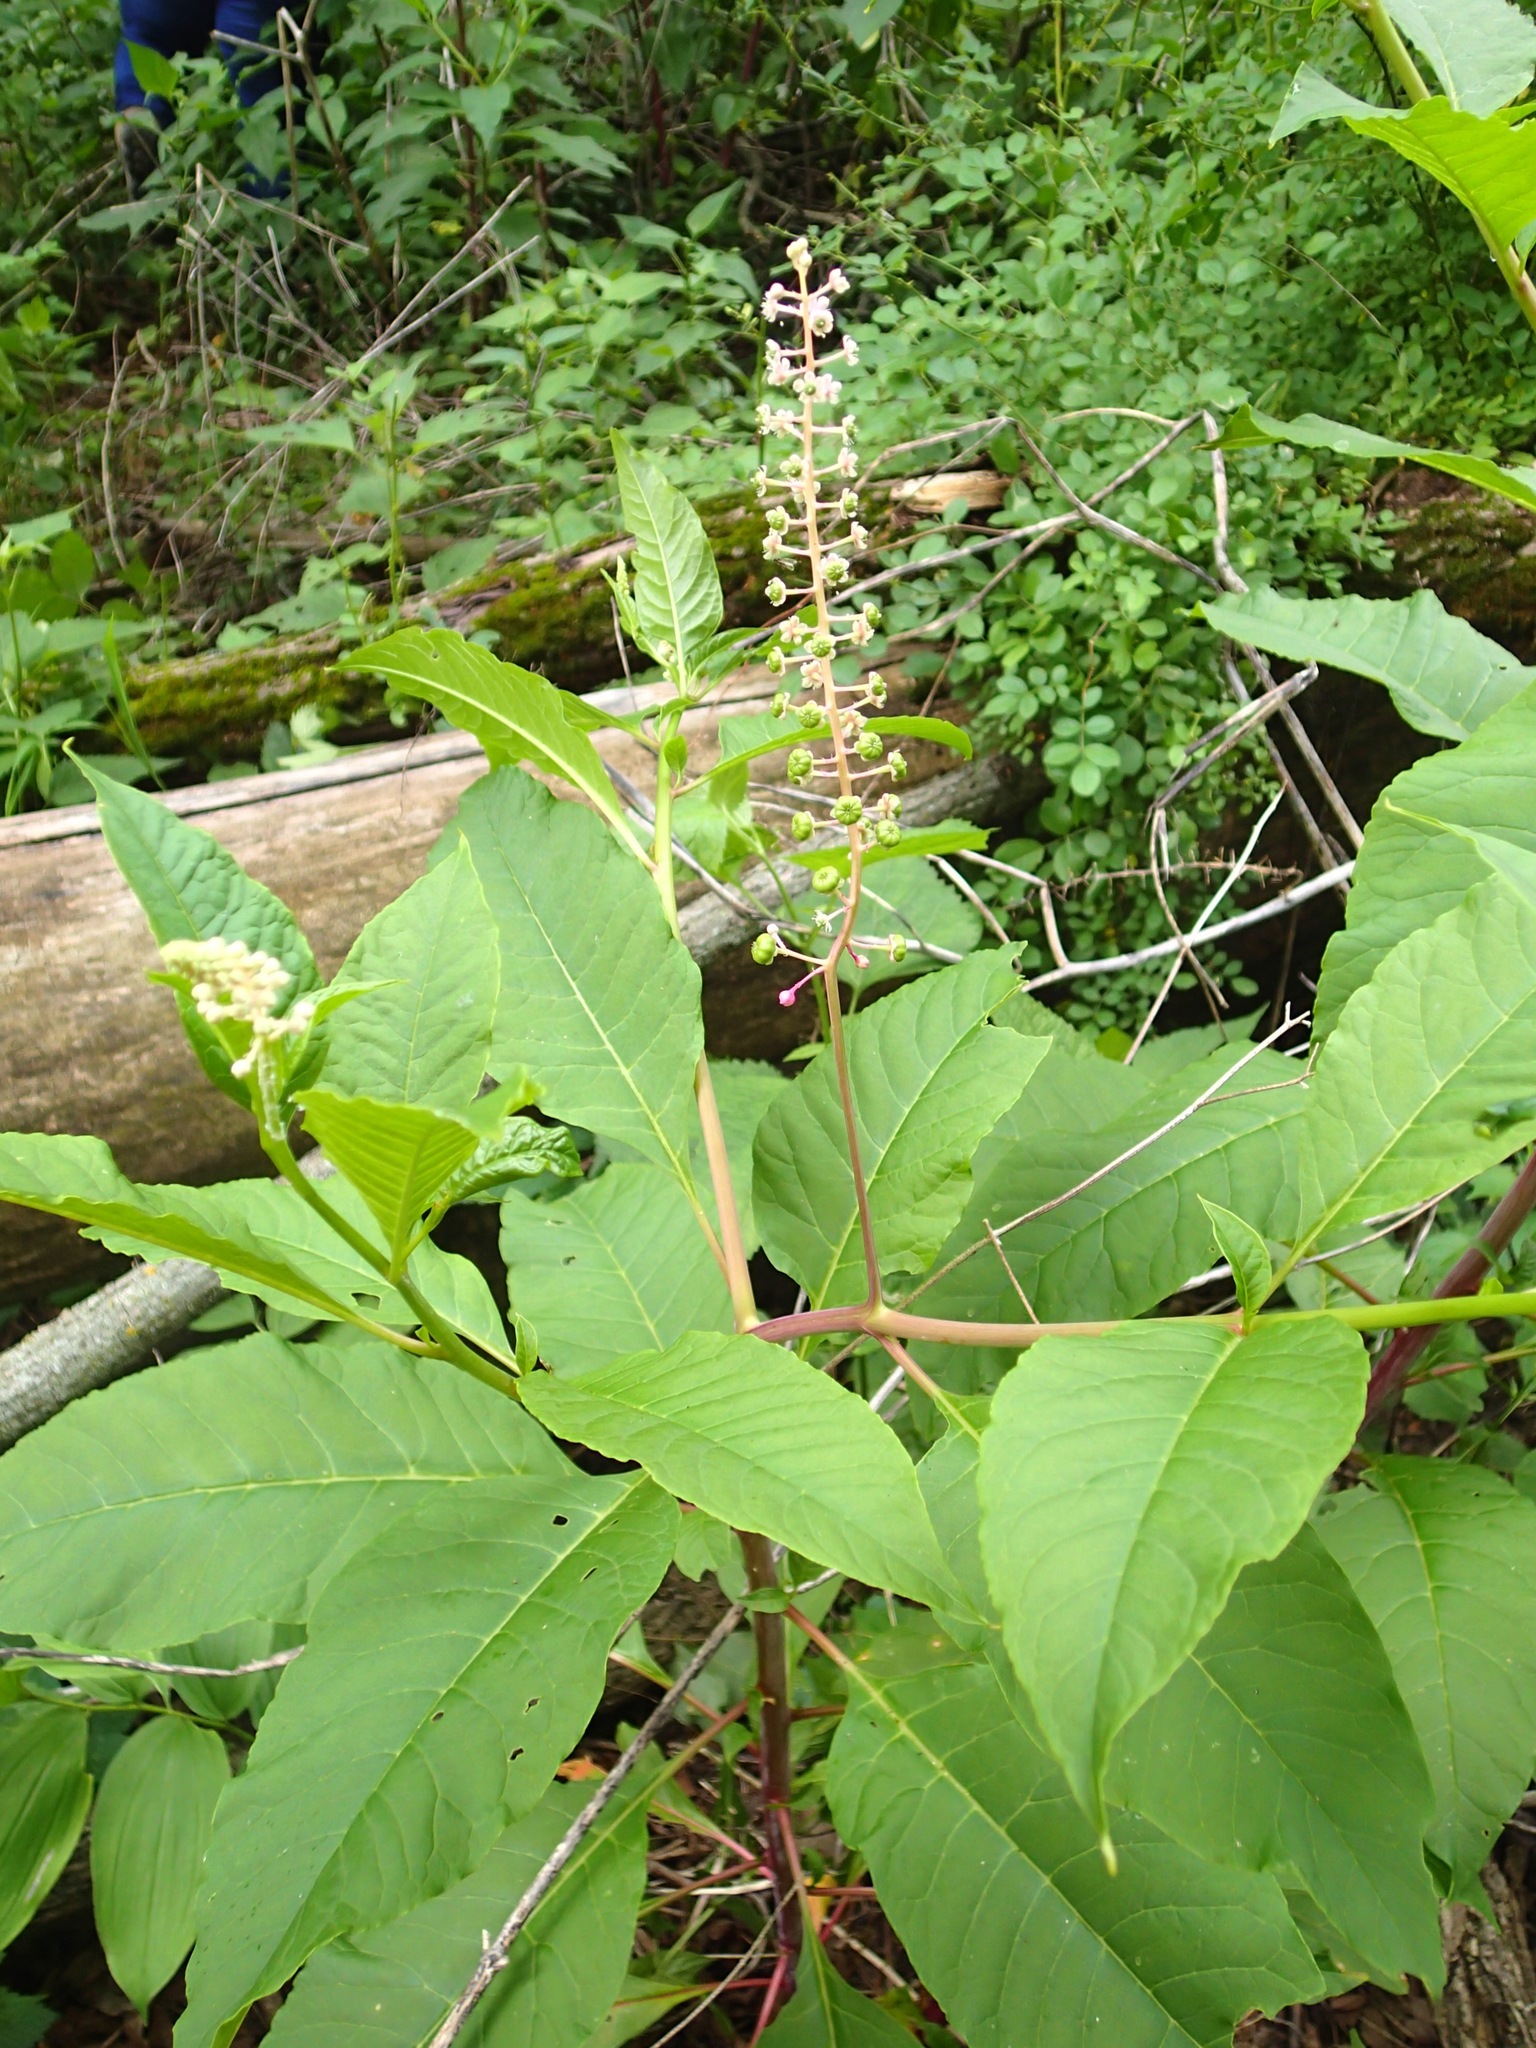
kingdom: Plantae
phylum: Tracheophyta
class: Magnoliopsida
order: Caryophyllales
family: Phytolaccaceae
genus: Phytolacca
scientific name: Phytolacca americana
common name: American pokeweed
